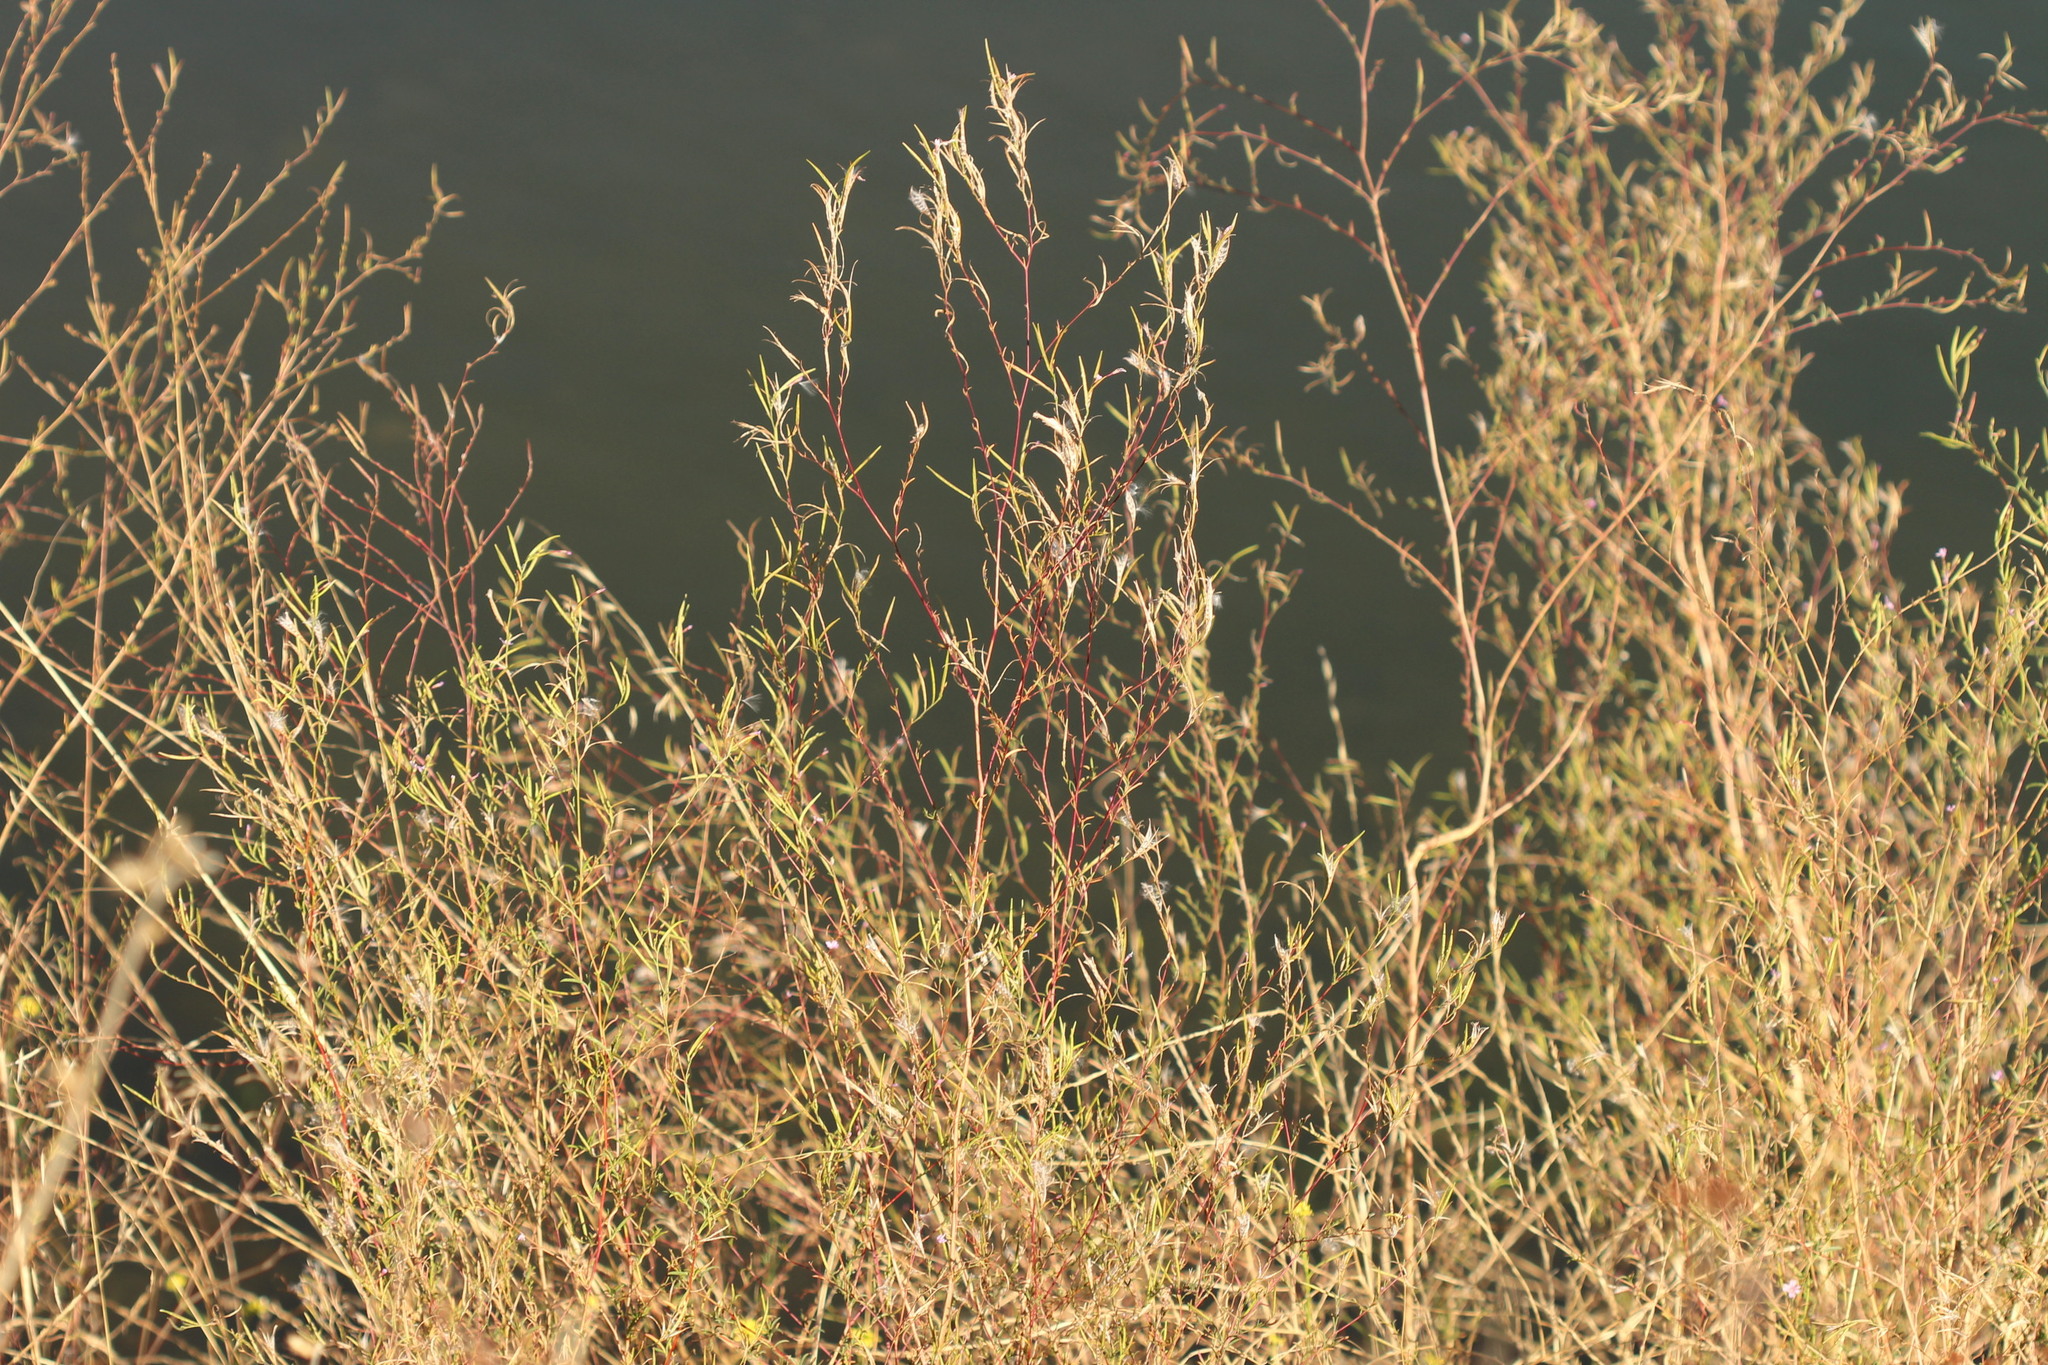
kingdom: Plantae
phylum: Tracheophyta
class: Magnoliopsida
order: Myrtales
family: Onagraceae
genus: Epilobium
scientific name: Epilobium brachycarpum
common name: Annual willowherb
